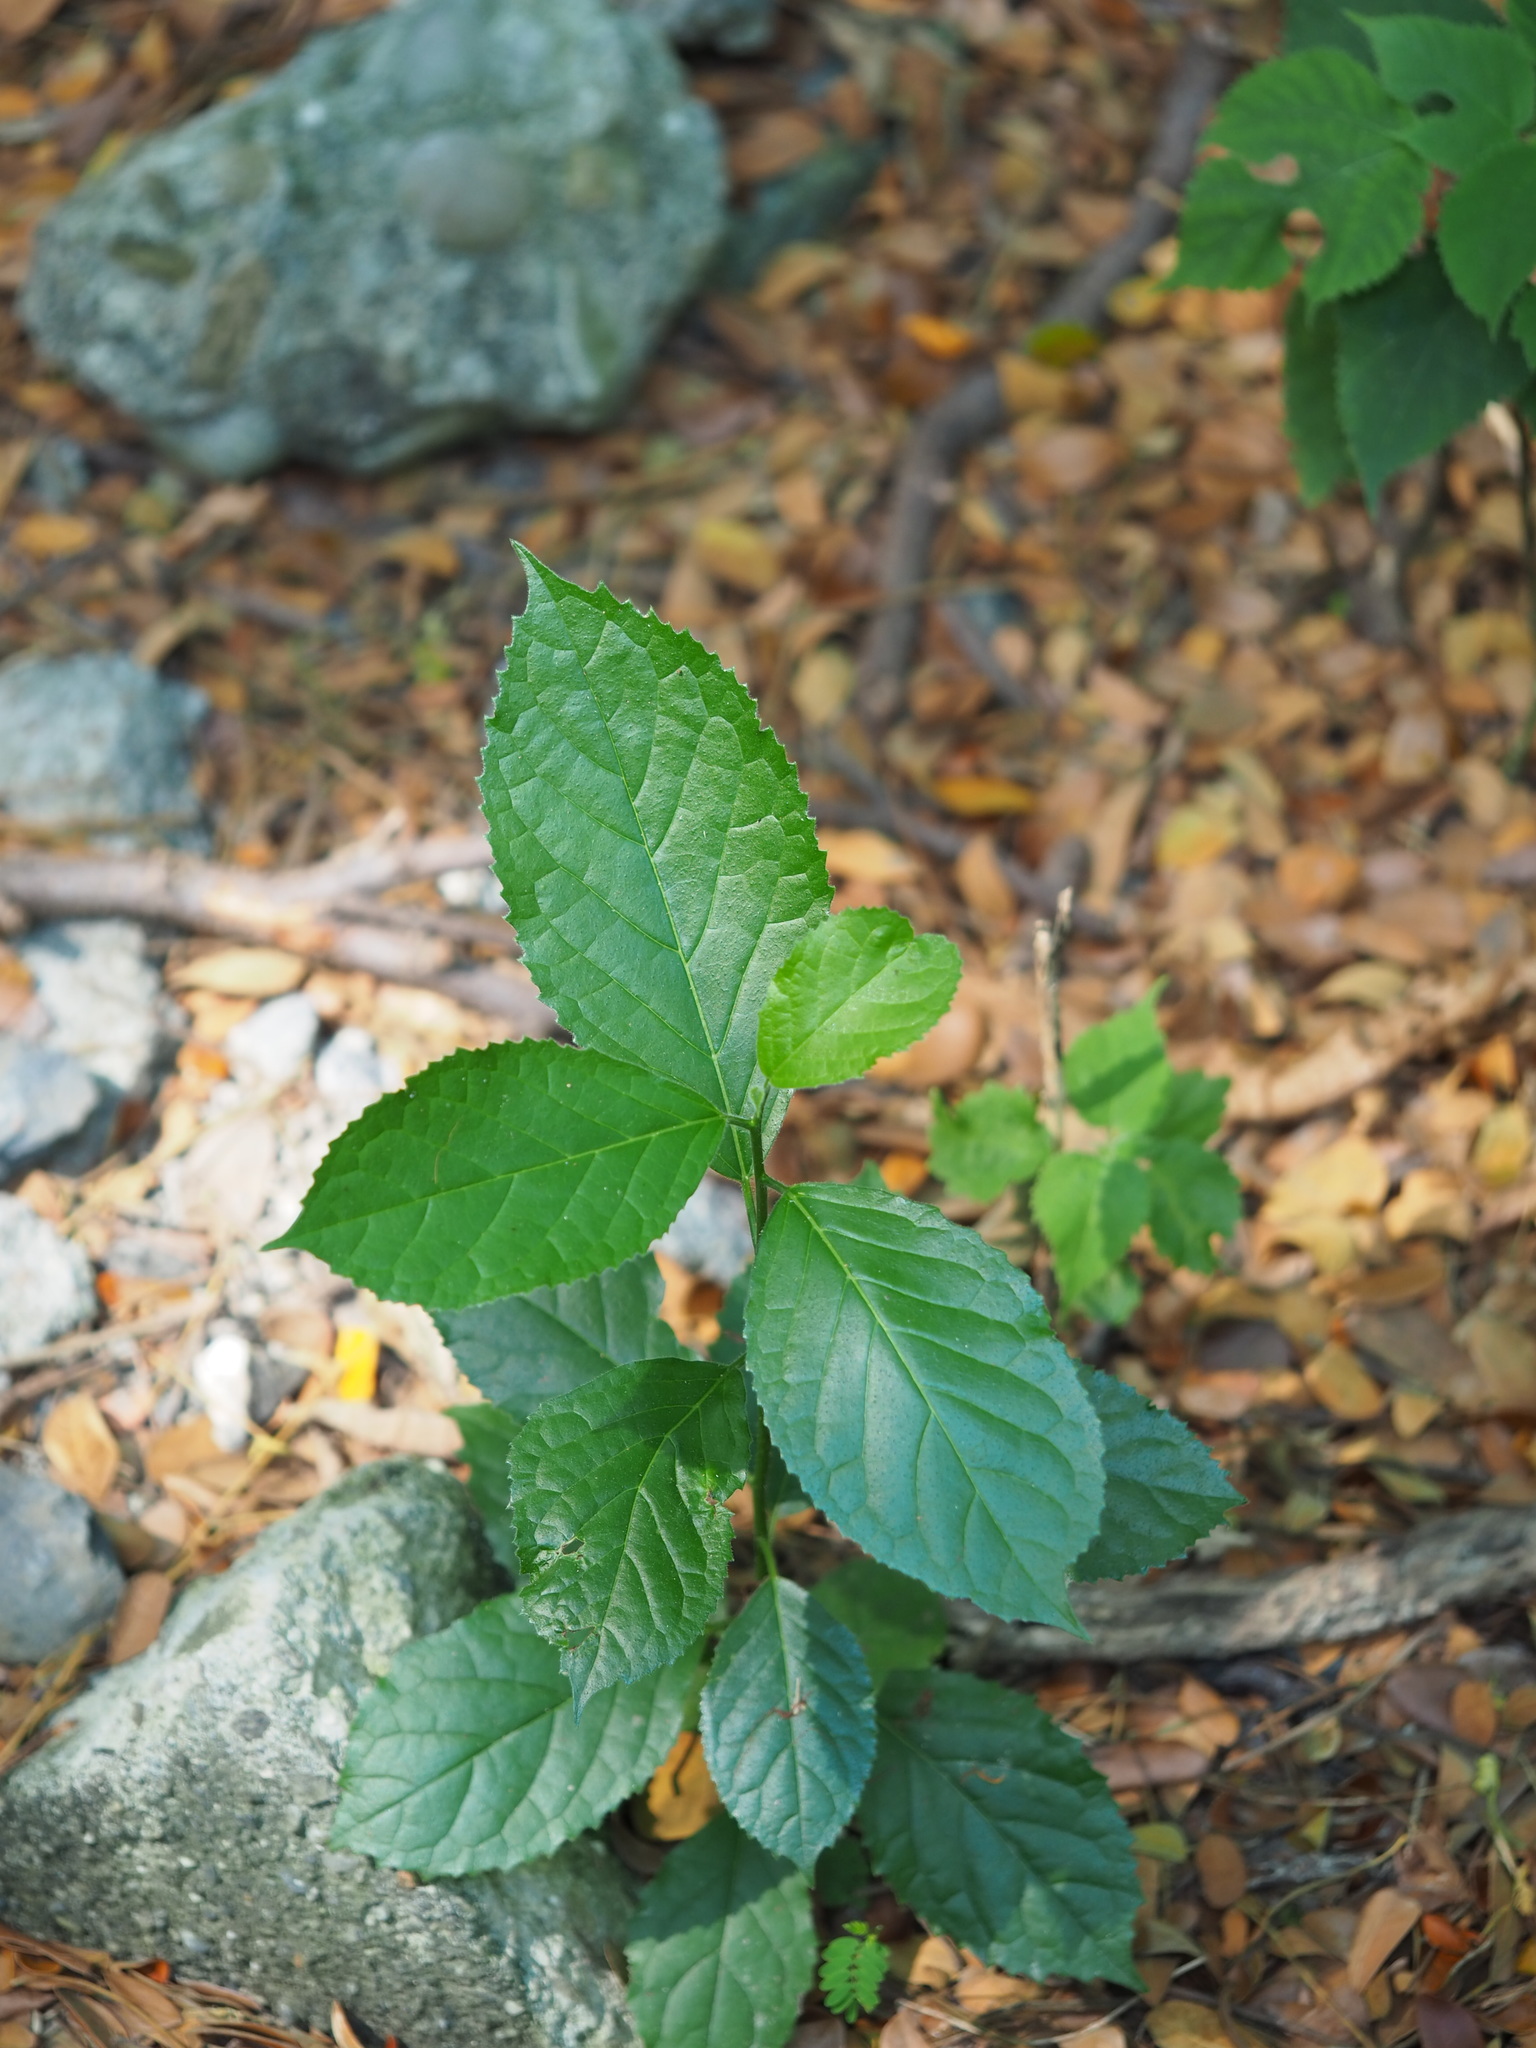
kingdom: Plantae
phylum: Tracheophyta
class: Magnoliopsida
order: Boraginales
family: Ehretiaceae
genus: Ehretia
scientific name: Ehretia resinosa
